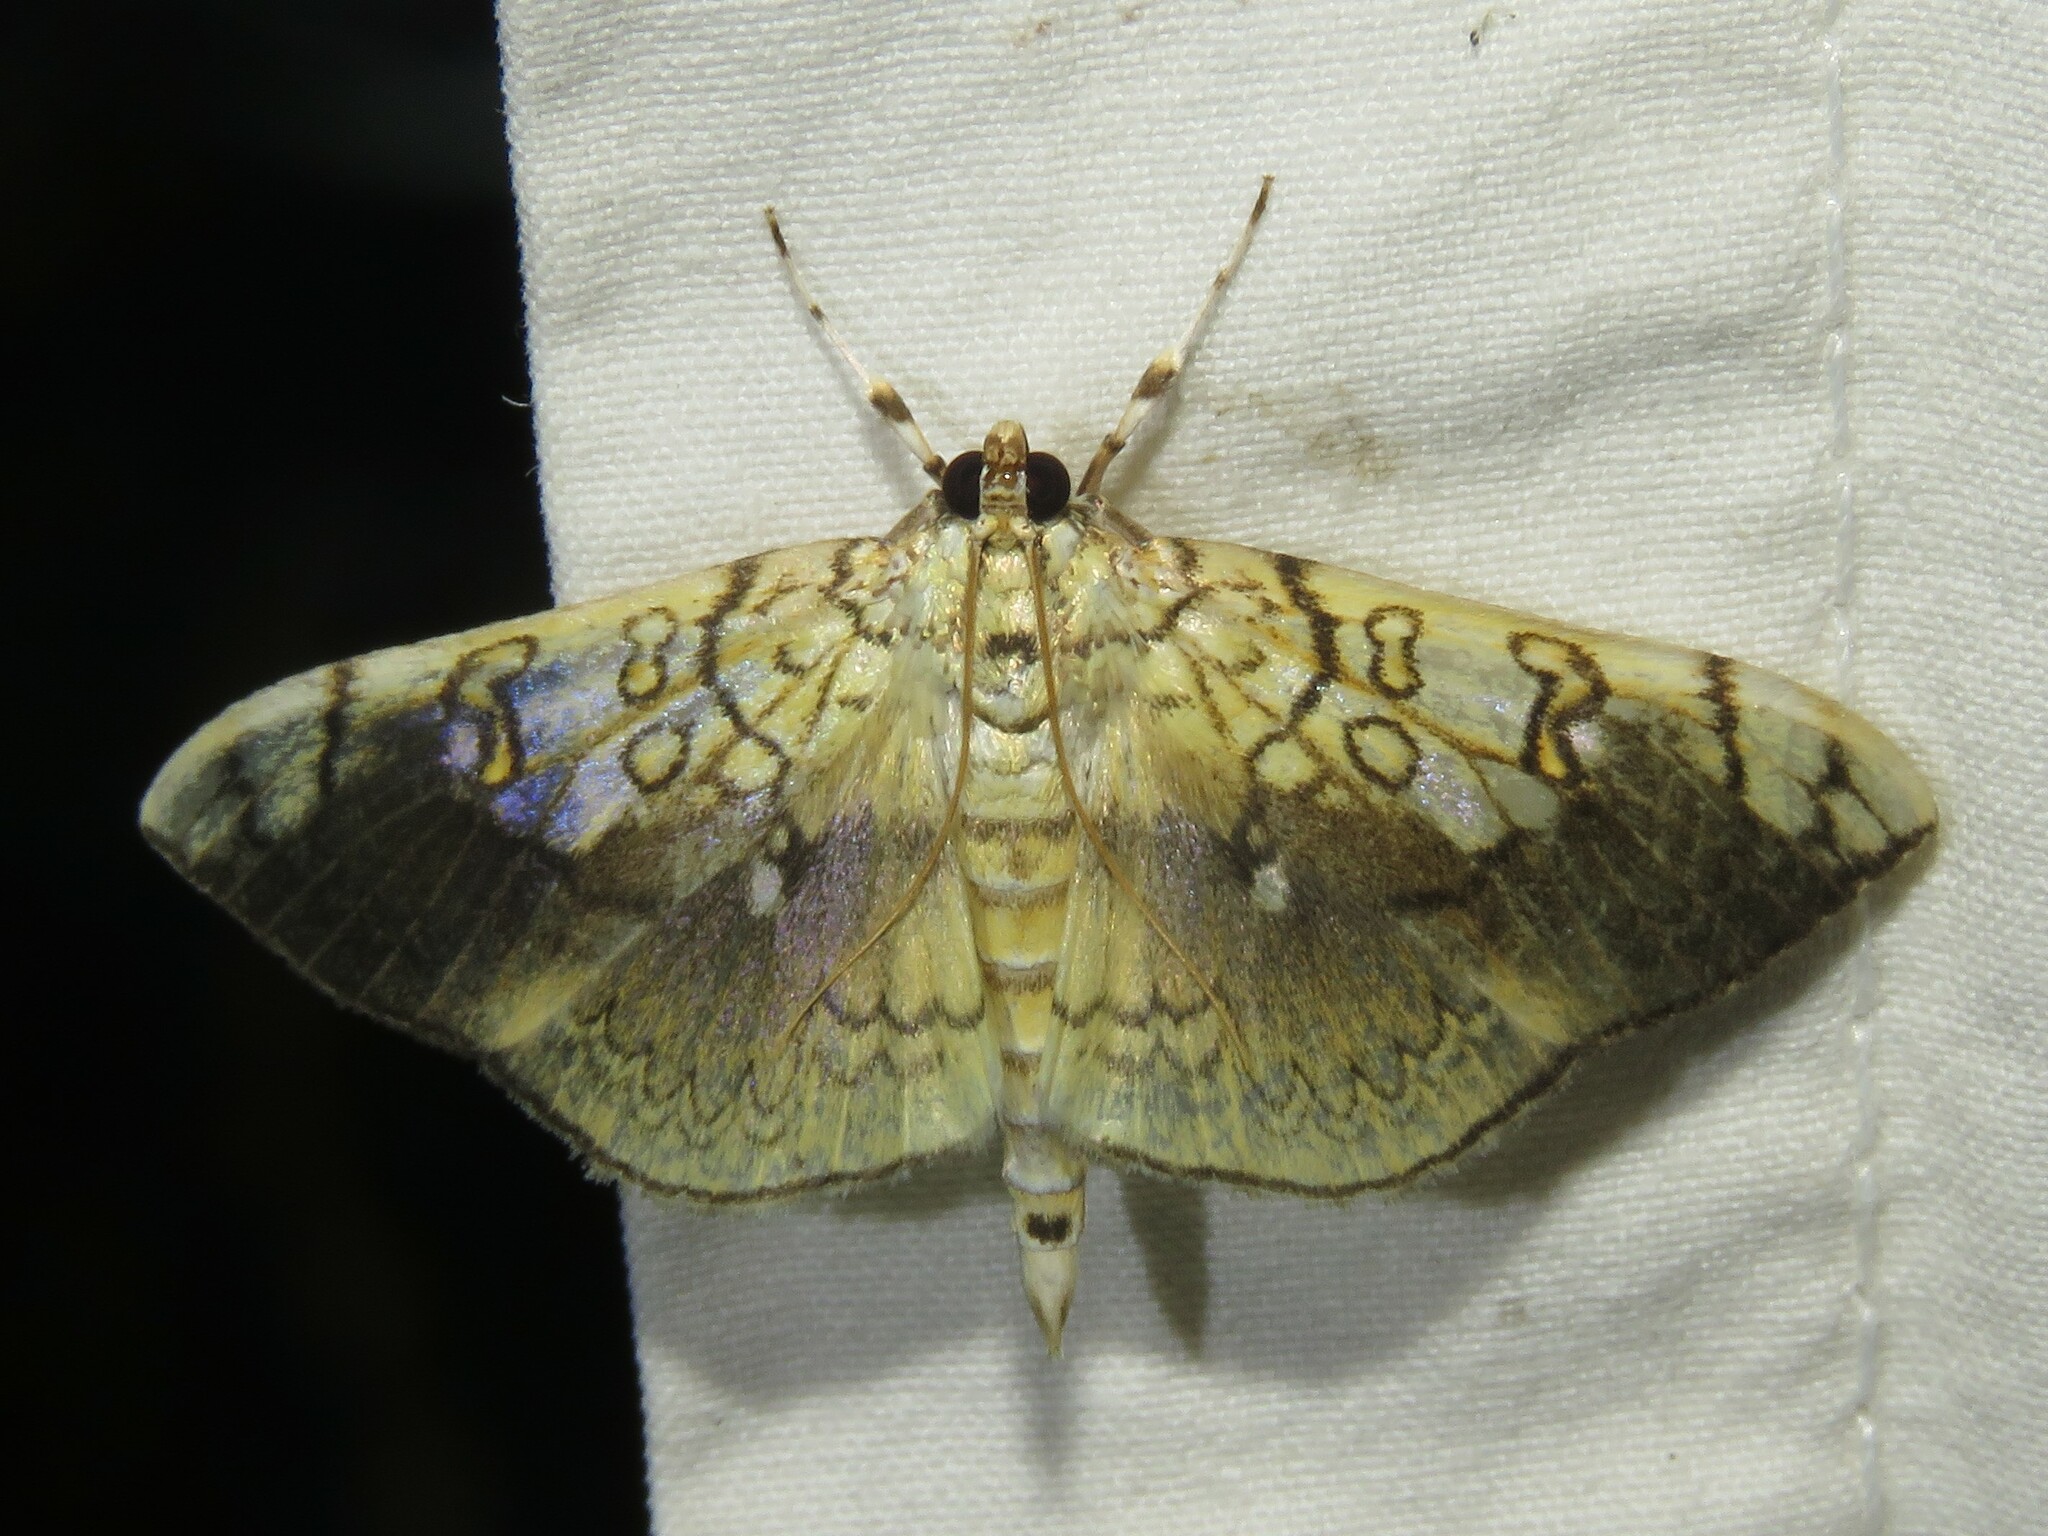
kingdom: Animalia
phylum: Arthropoda
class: Insecta
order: Lepidoptera
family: Crambidae
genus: Pantographa
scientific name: Pantographa limata
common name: Basswood leafroller moth
